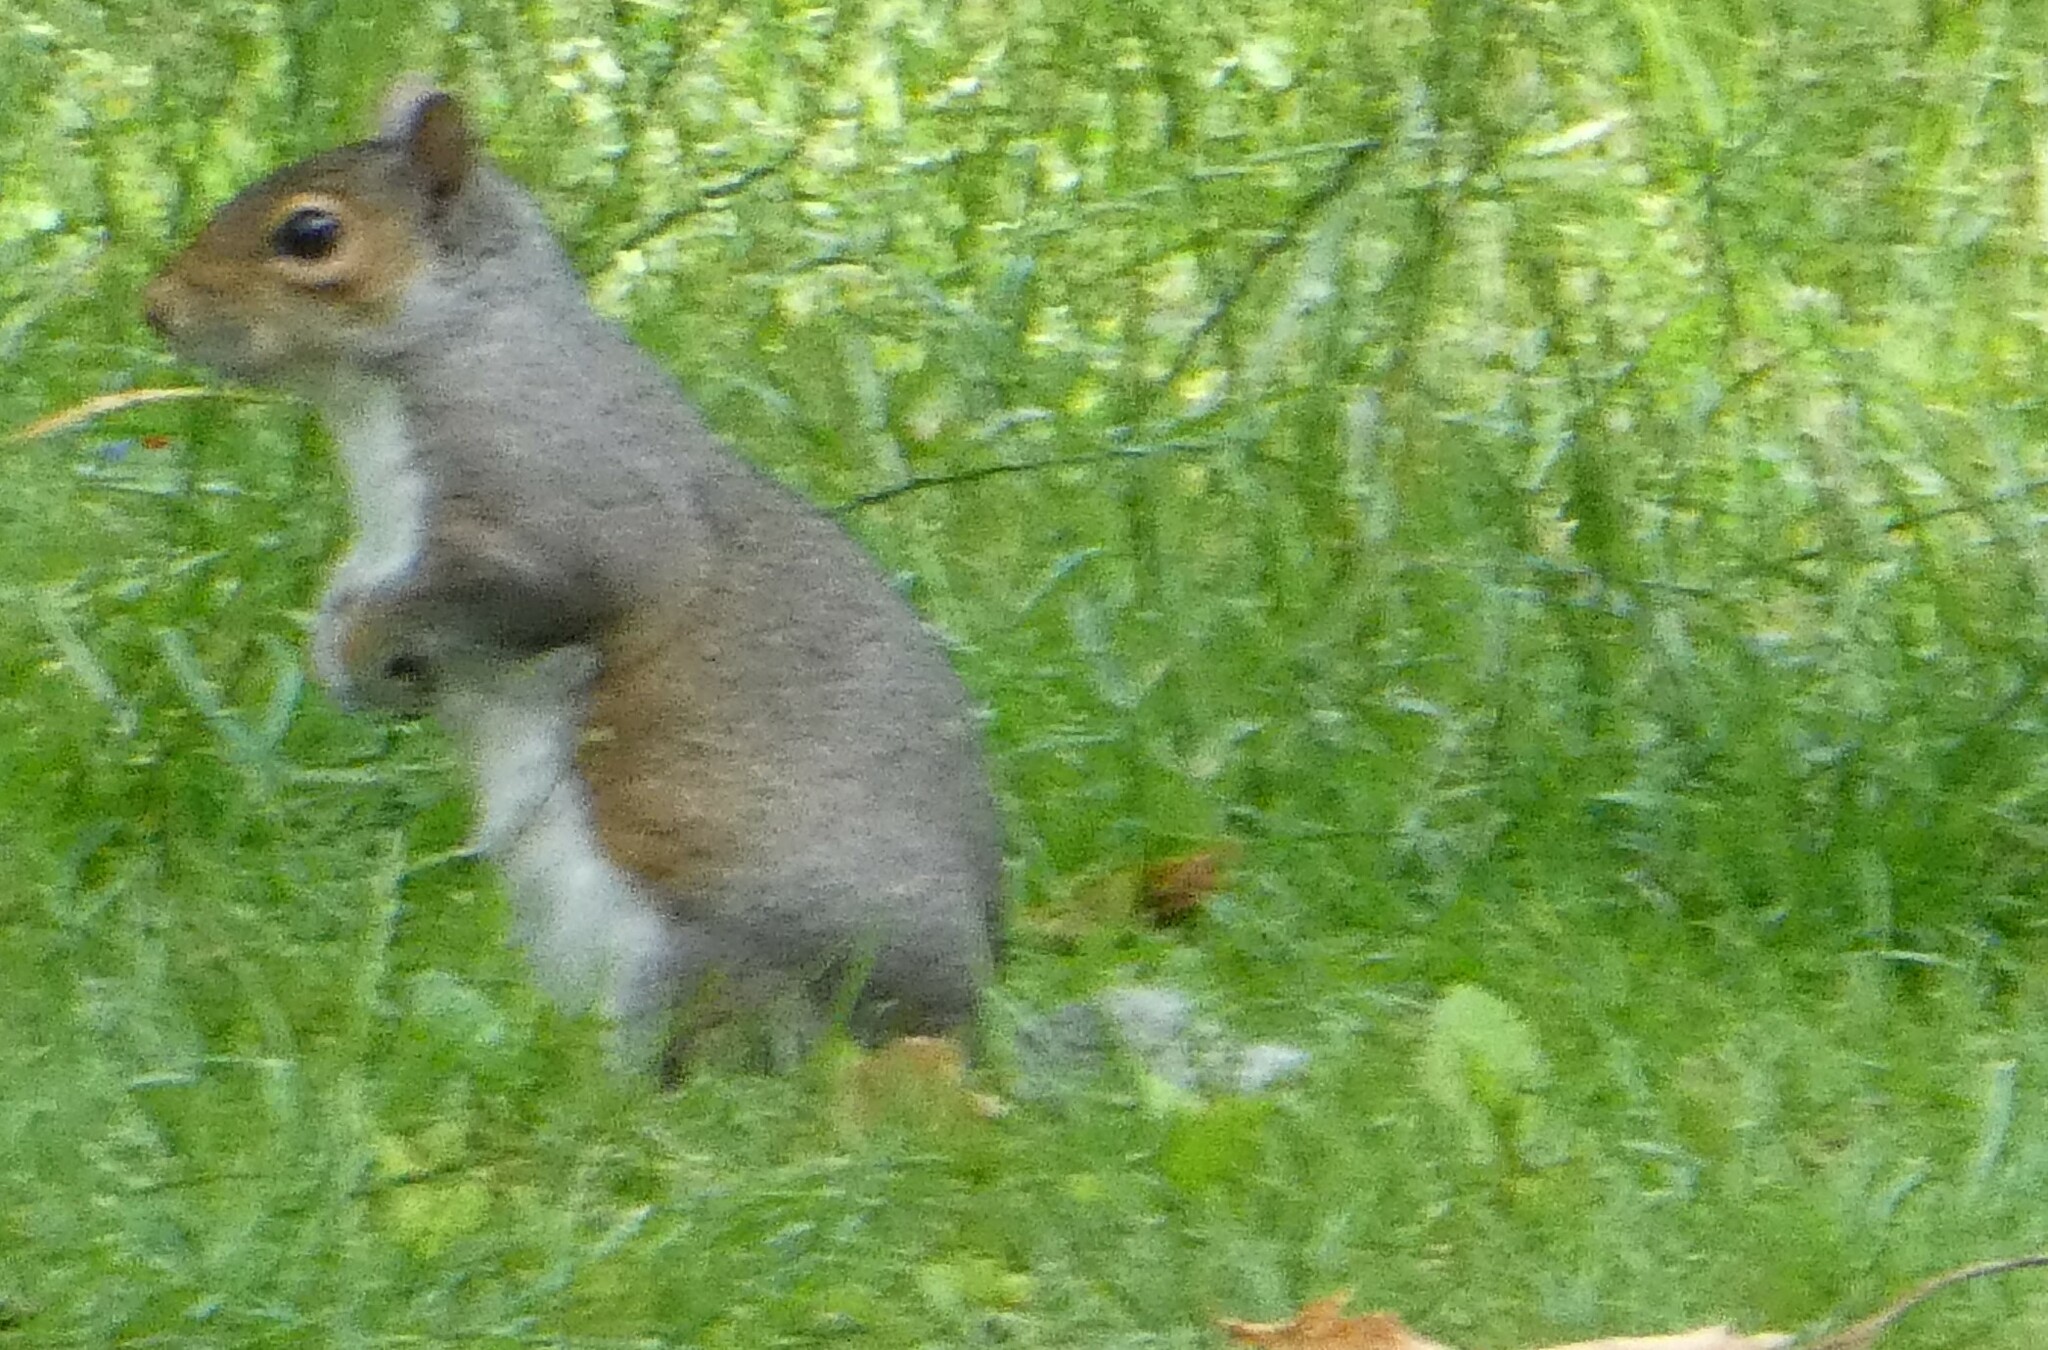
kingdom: Animalia
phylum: Chordata
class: Mammalia
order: Rodentia
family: Sciuridae
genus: Sciurus
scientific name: Sciurus carolinensis
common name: Eastern gray squirrel
